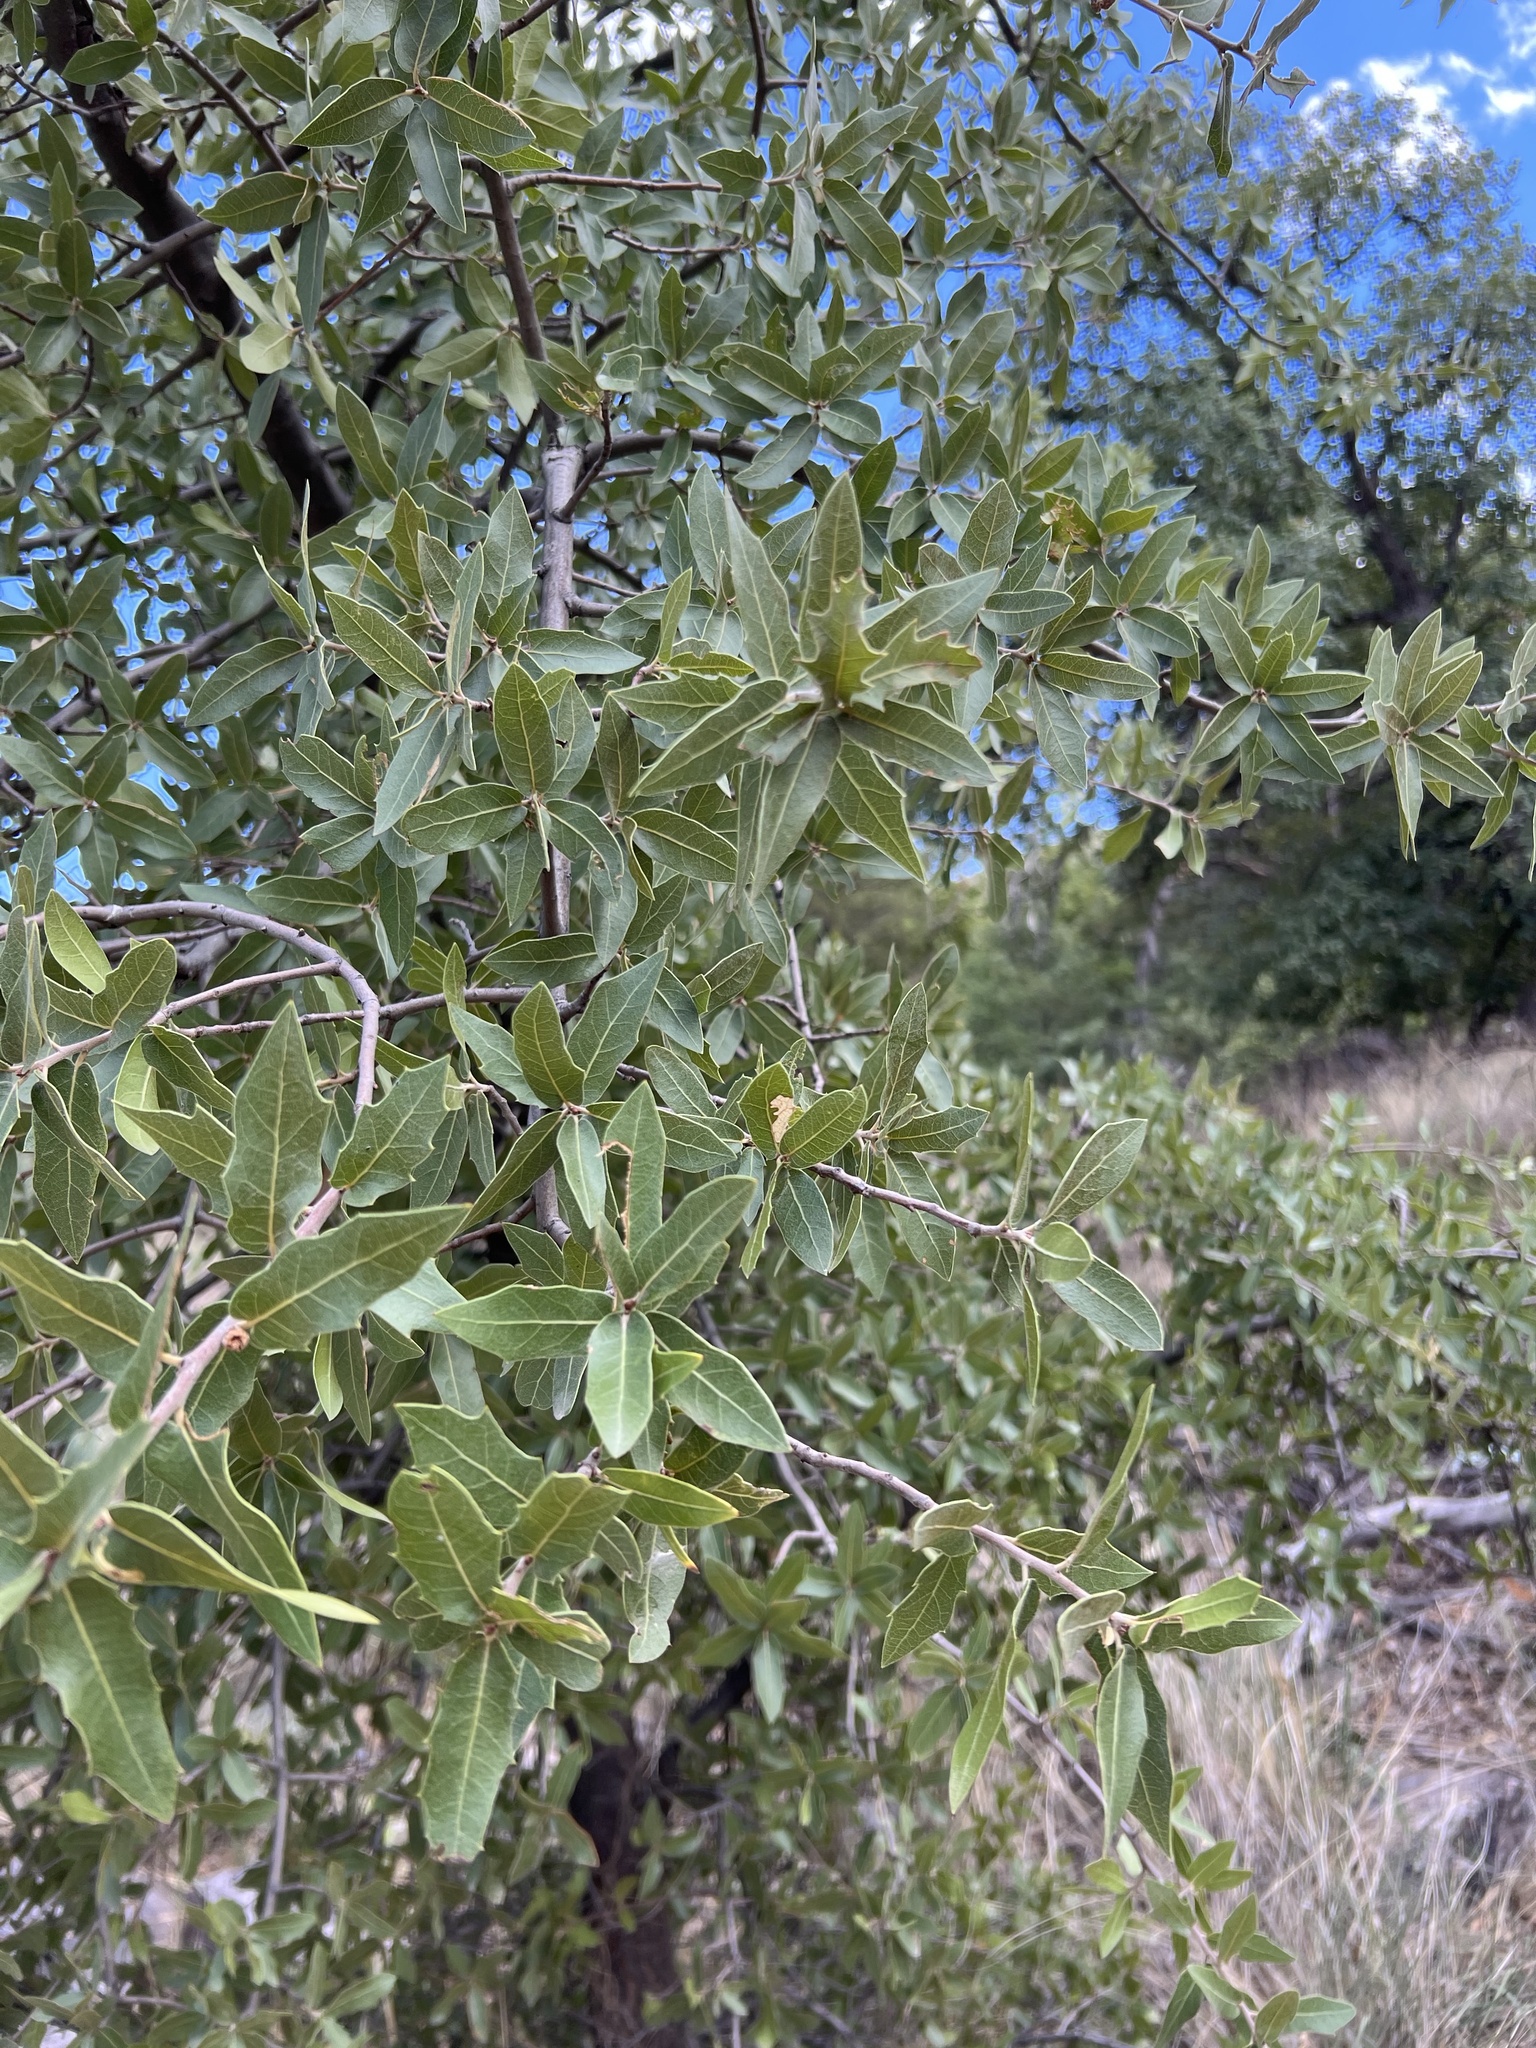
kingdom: Plantae
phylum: Tracheophyta
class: Magnoliopsida
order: Fagales
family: Fagaceae
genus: Quercus
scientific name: Quercus emoryi
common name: Emory oak
